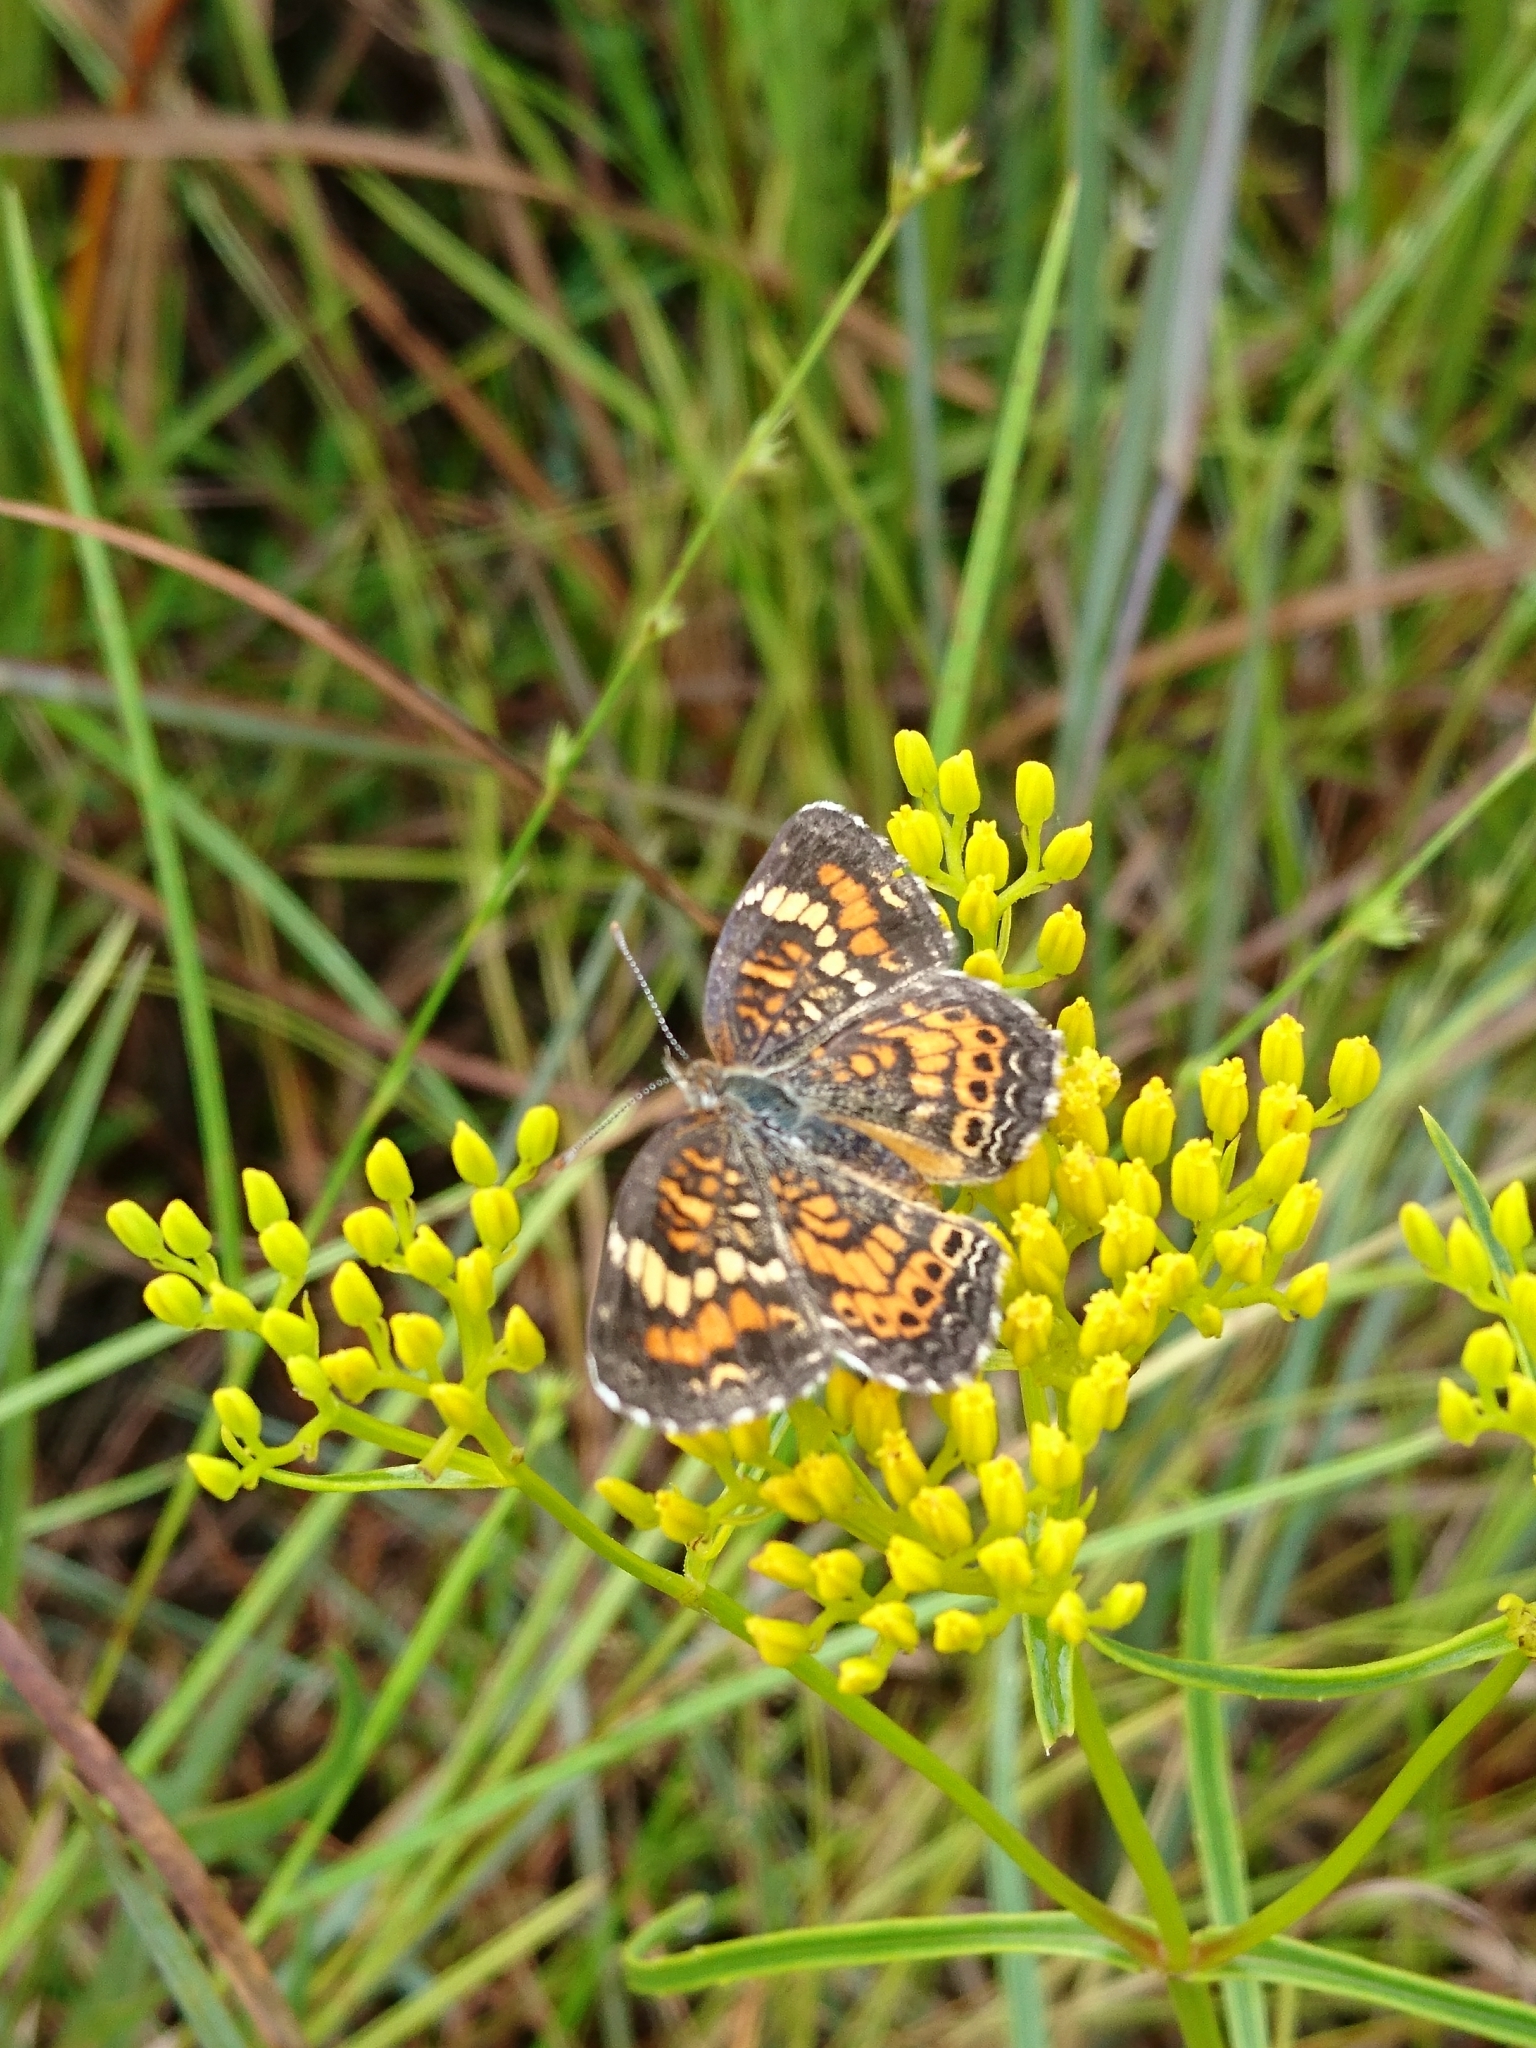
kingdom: Animalia
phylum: Arthropoda
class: Insecta
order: Lepidoptera
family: Nymphalidae
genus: Phyciodes
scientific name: Phyciodes phaon
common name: Phaon crescent
